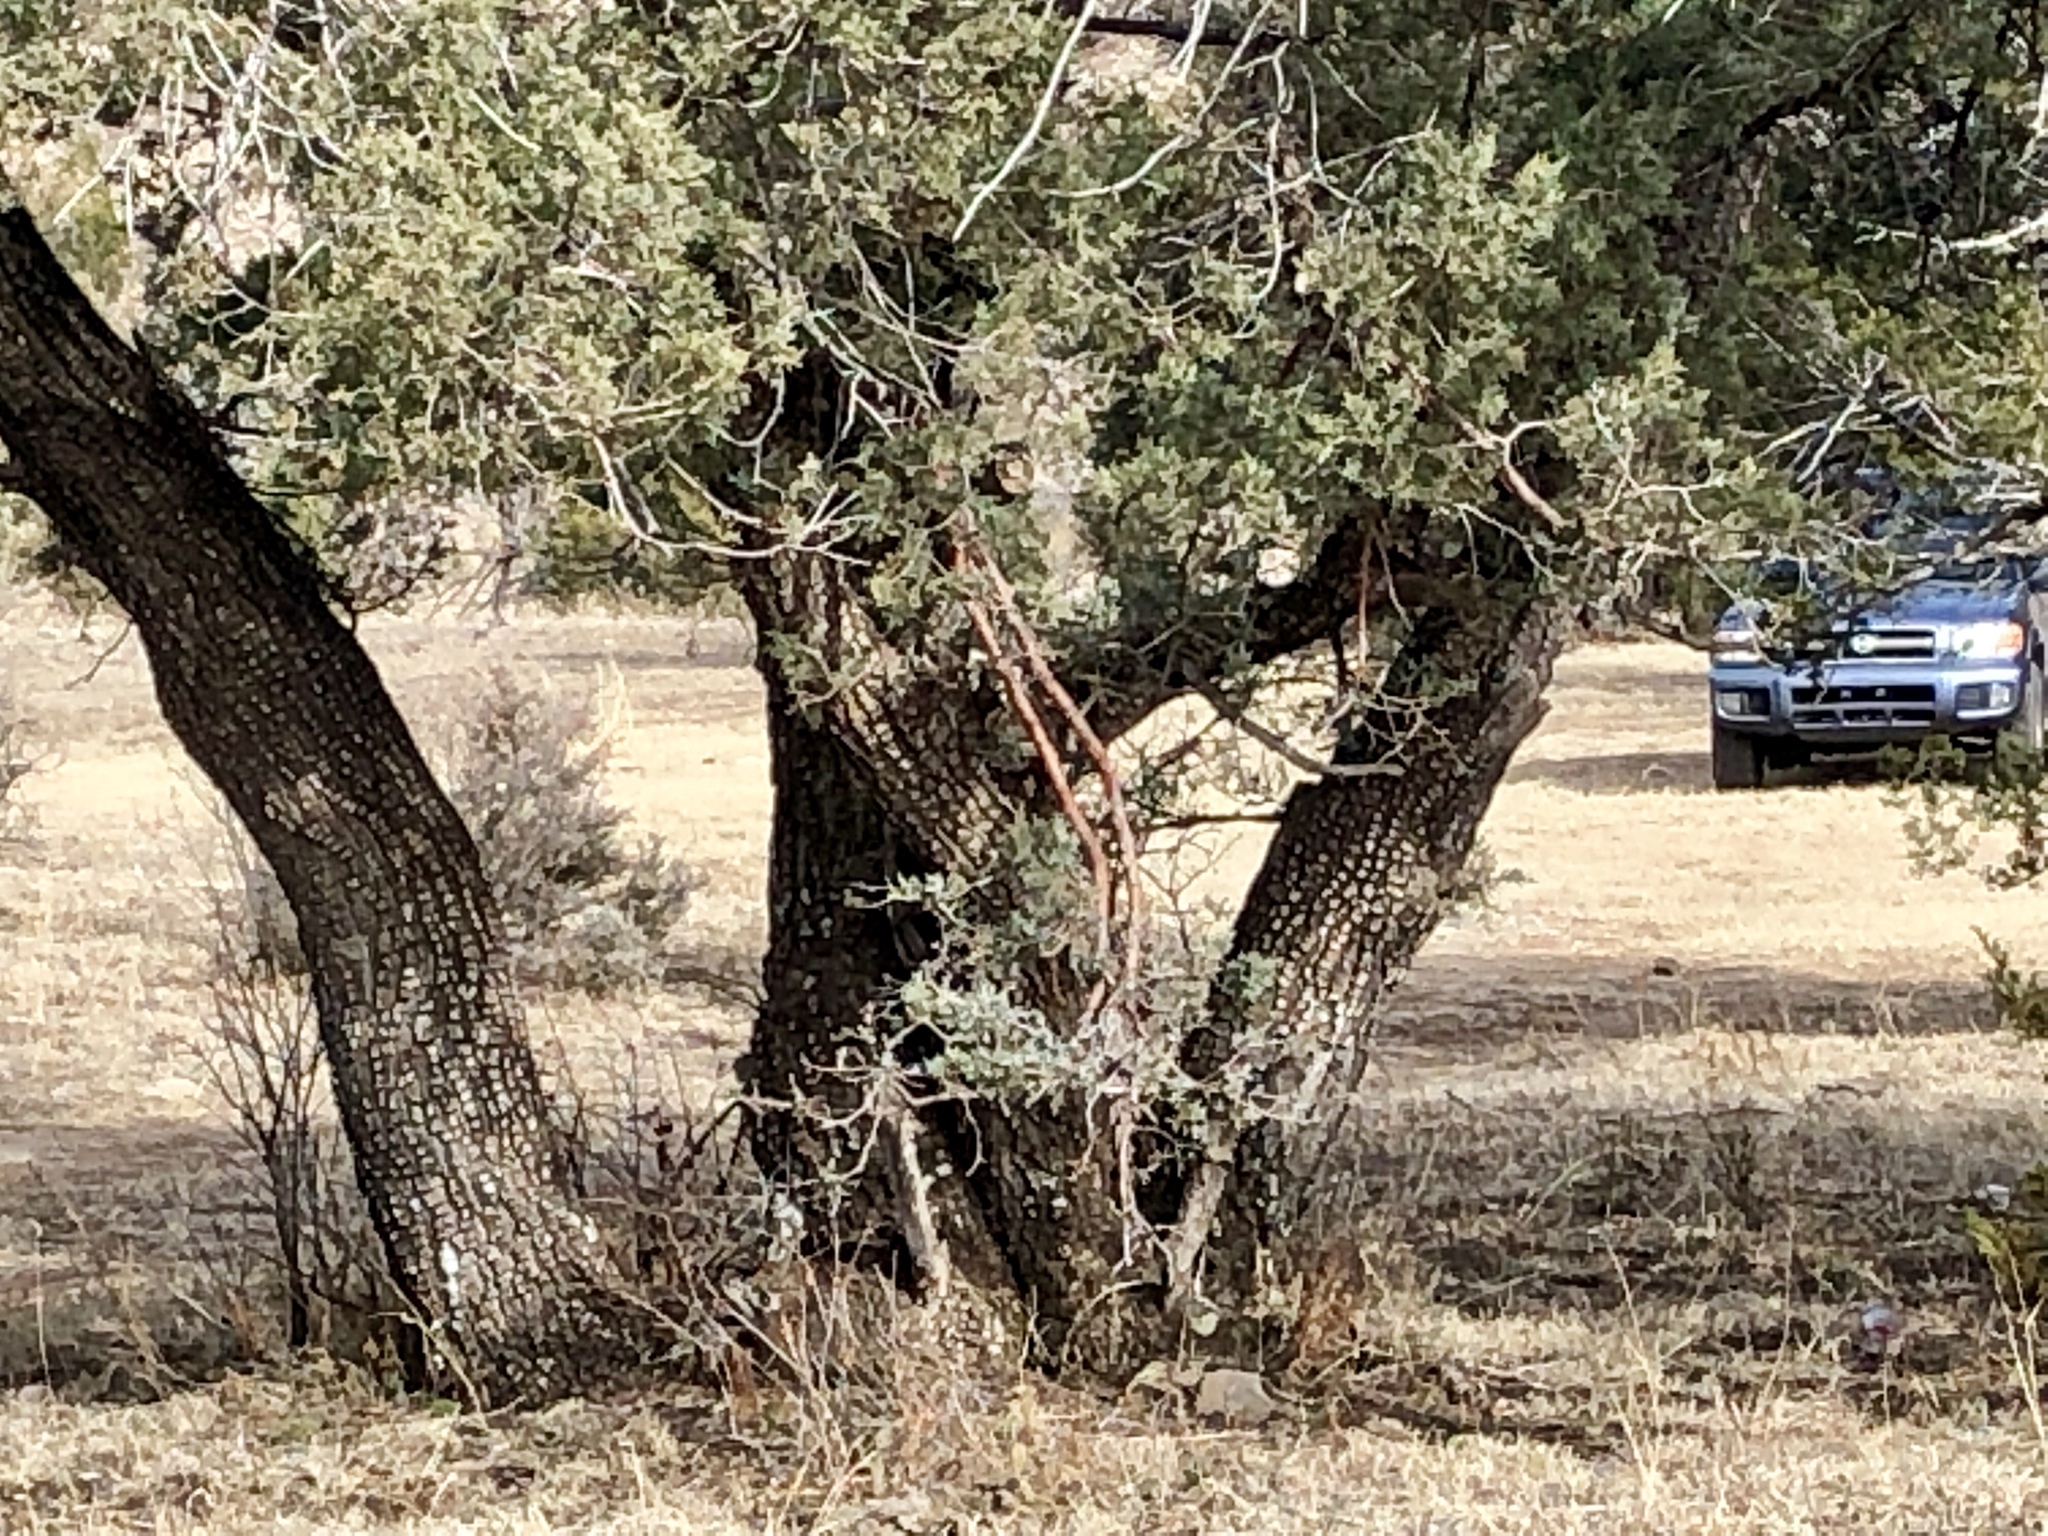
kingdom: Plantae
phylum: Tracheophyta
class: Pinopsida
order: Pinales
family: Cupressaceae
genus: Juniperus
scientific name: Juniperus deppeana
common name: Alligator juniper
